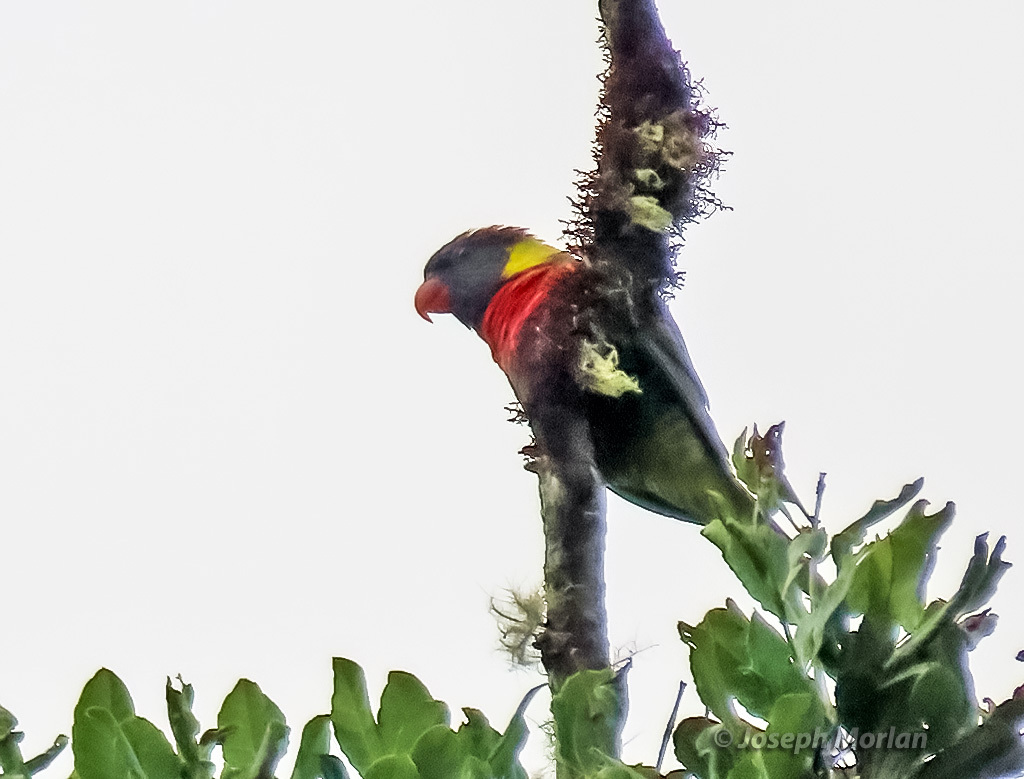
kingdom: Animalia
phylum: Chordata
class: Aves
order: Psittaciformes
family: Psittacidae
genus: Trichoglossus
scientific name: Trichoglossus haematodus
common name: Coconut lorikeet
